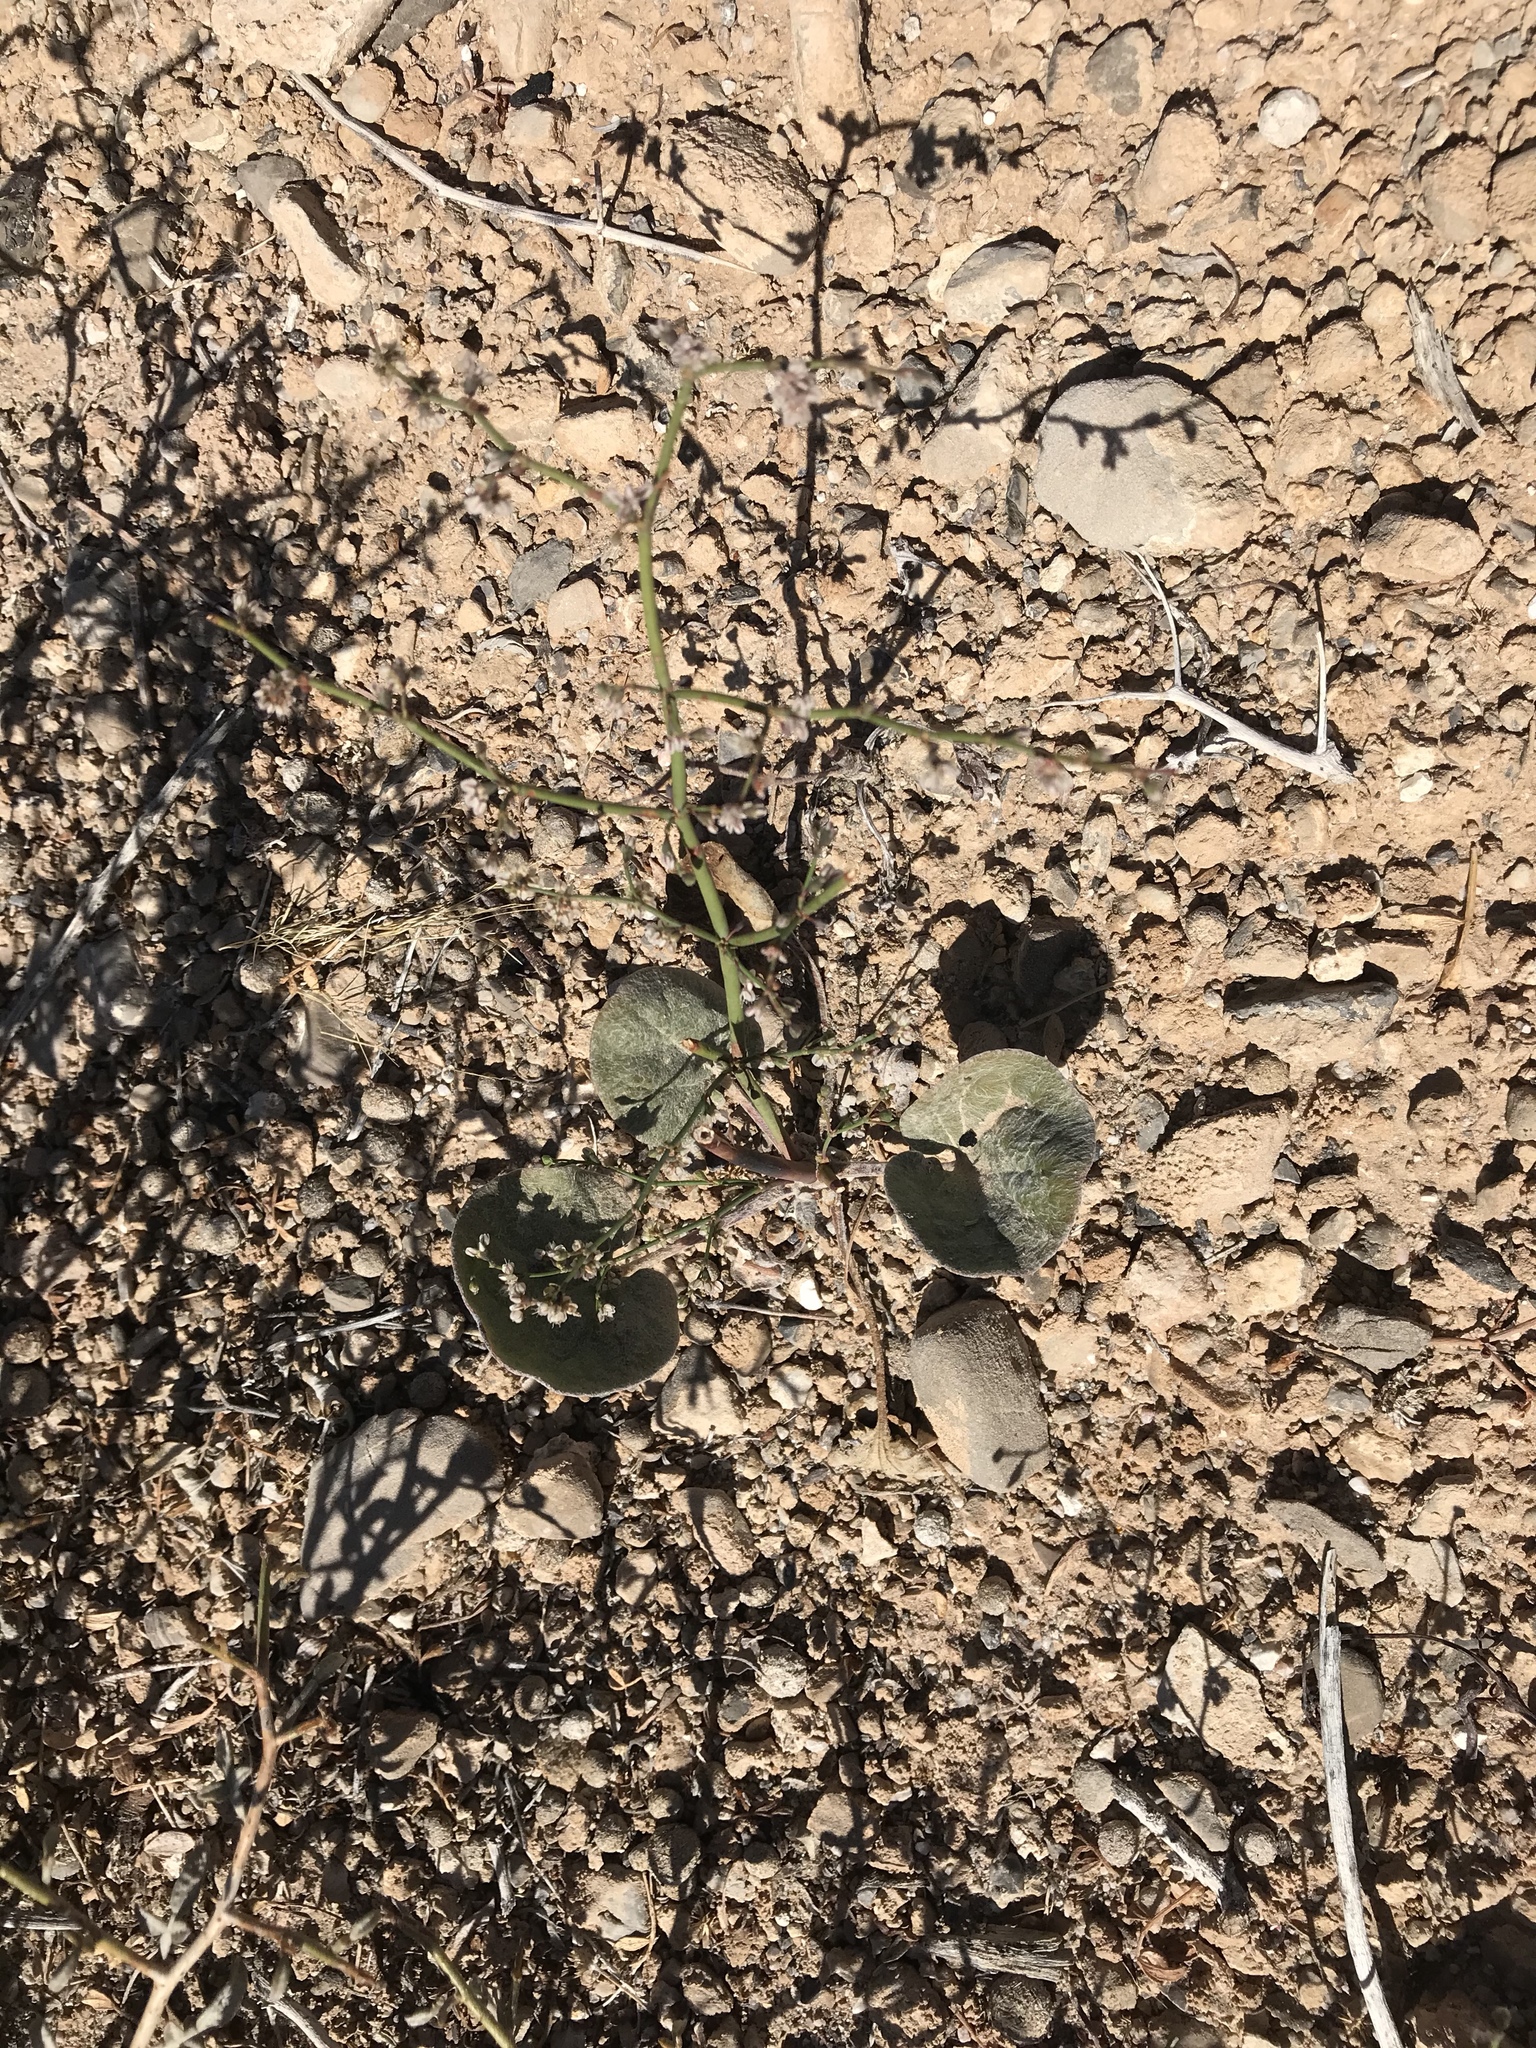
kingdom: Plantae
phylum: Tracheophyta
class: Magnoliopsida
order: Caryophyllales
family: Polygonaceae
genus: Eriogonum
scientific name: Eriogonum inflatum
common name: Desert trumpet
